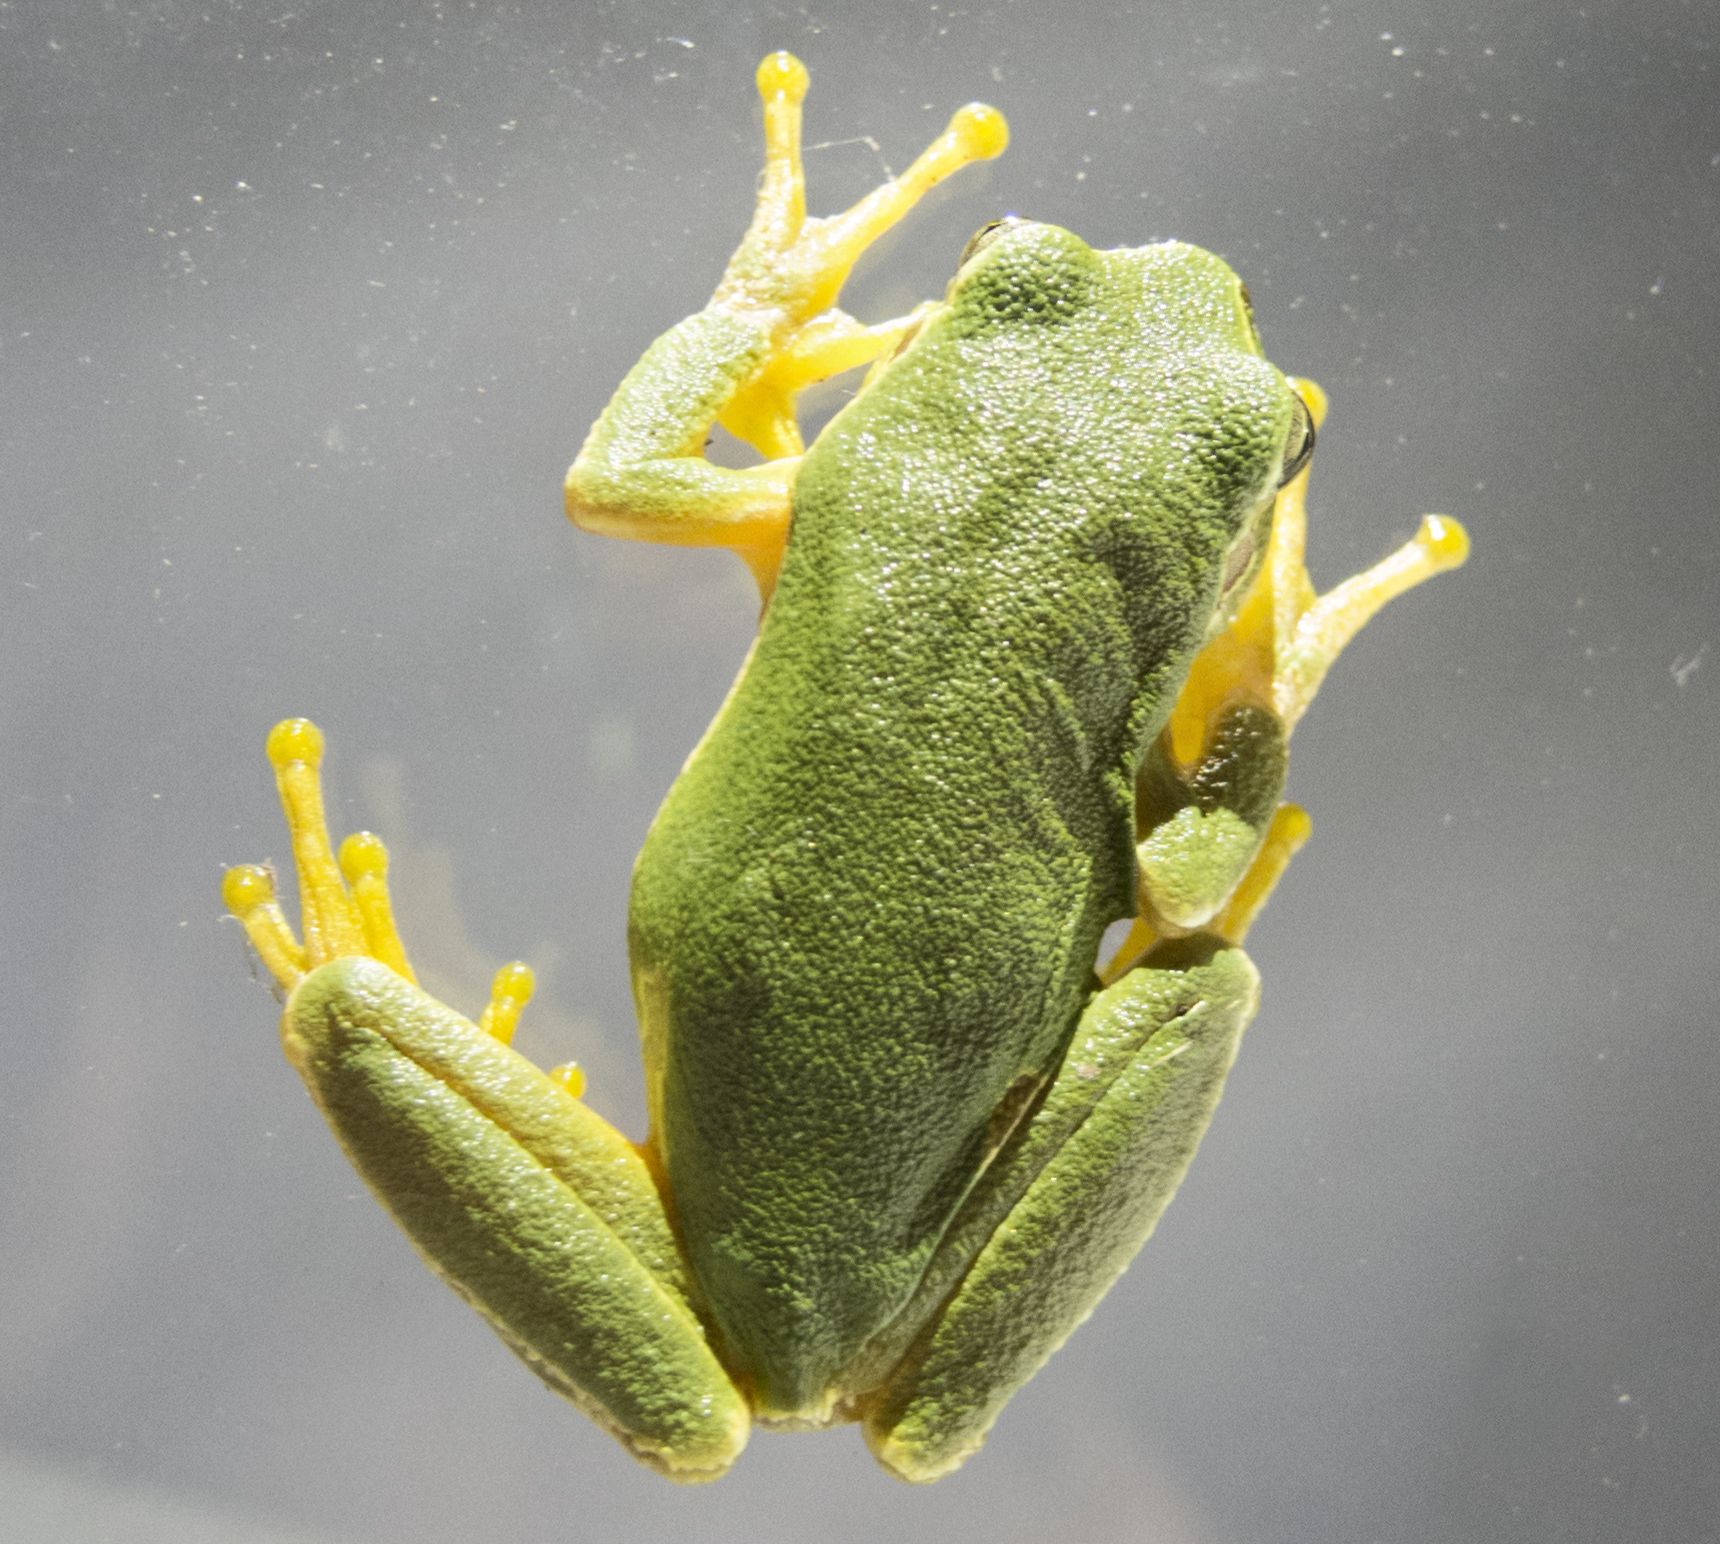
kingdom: Animalia
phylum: Chordata
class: Amphibia
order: Anura
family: Hylidae
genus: Hyla
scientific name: Hyla orientalis
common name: Caucasian treefrog
